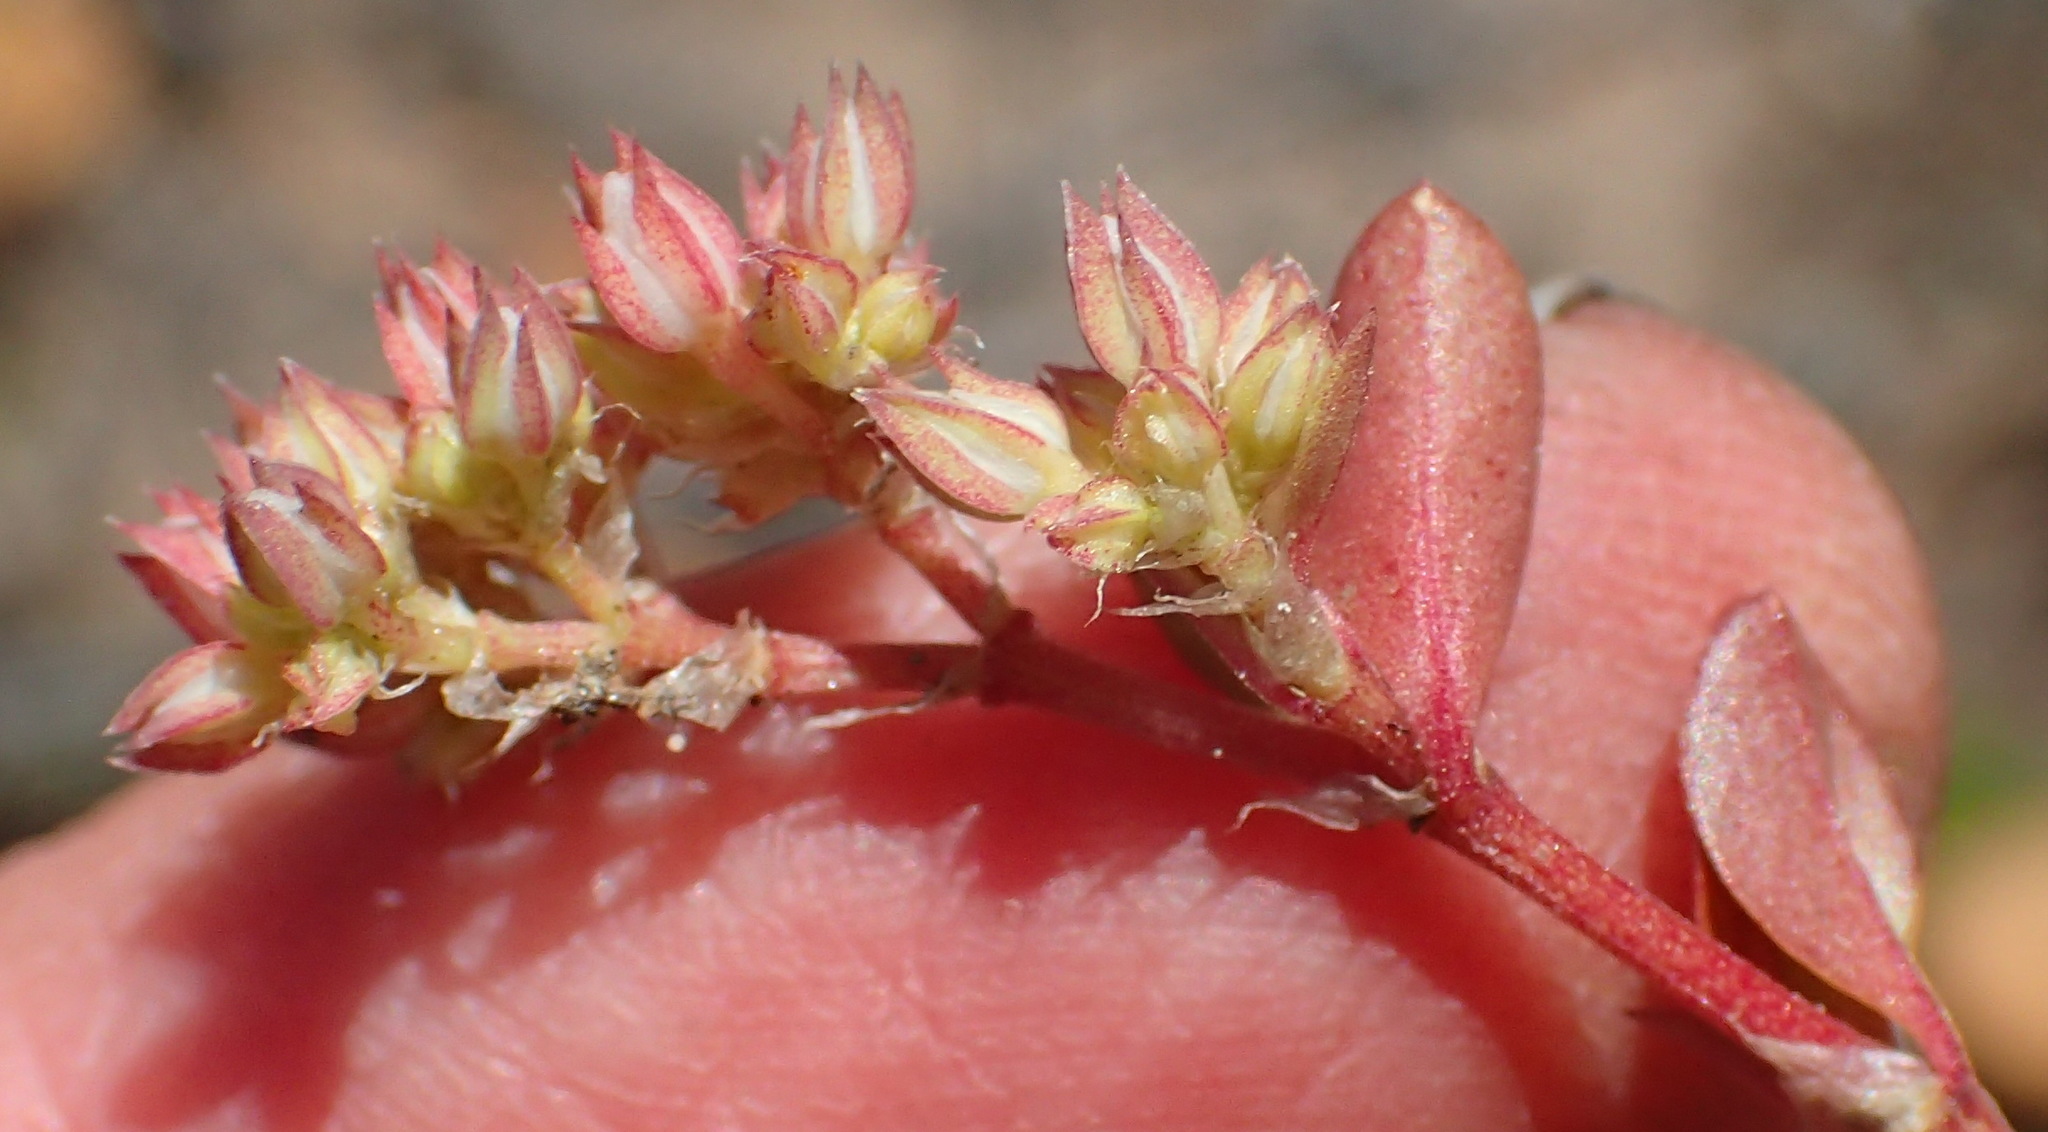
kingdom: Plantae
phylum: Tracheophyta
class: Magnoliopsida
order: Caryophyllales
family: Caryophyllaceae
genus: Polycarpon
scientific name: Polycarpon tetraphyllum
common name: Four-leaved all-seed
